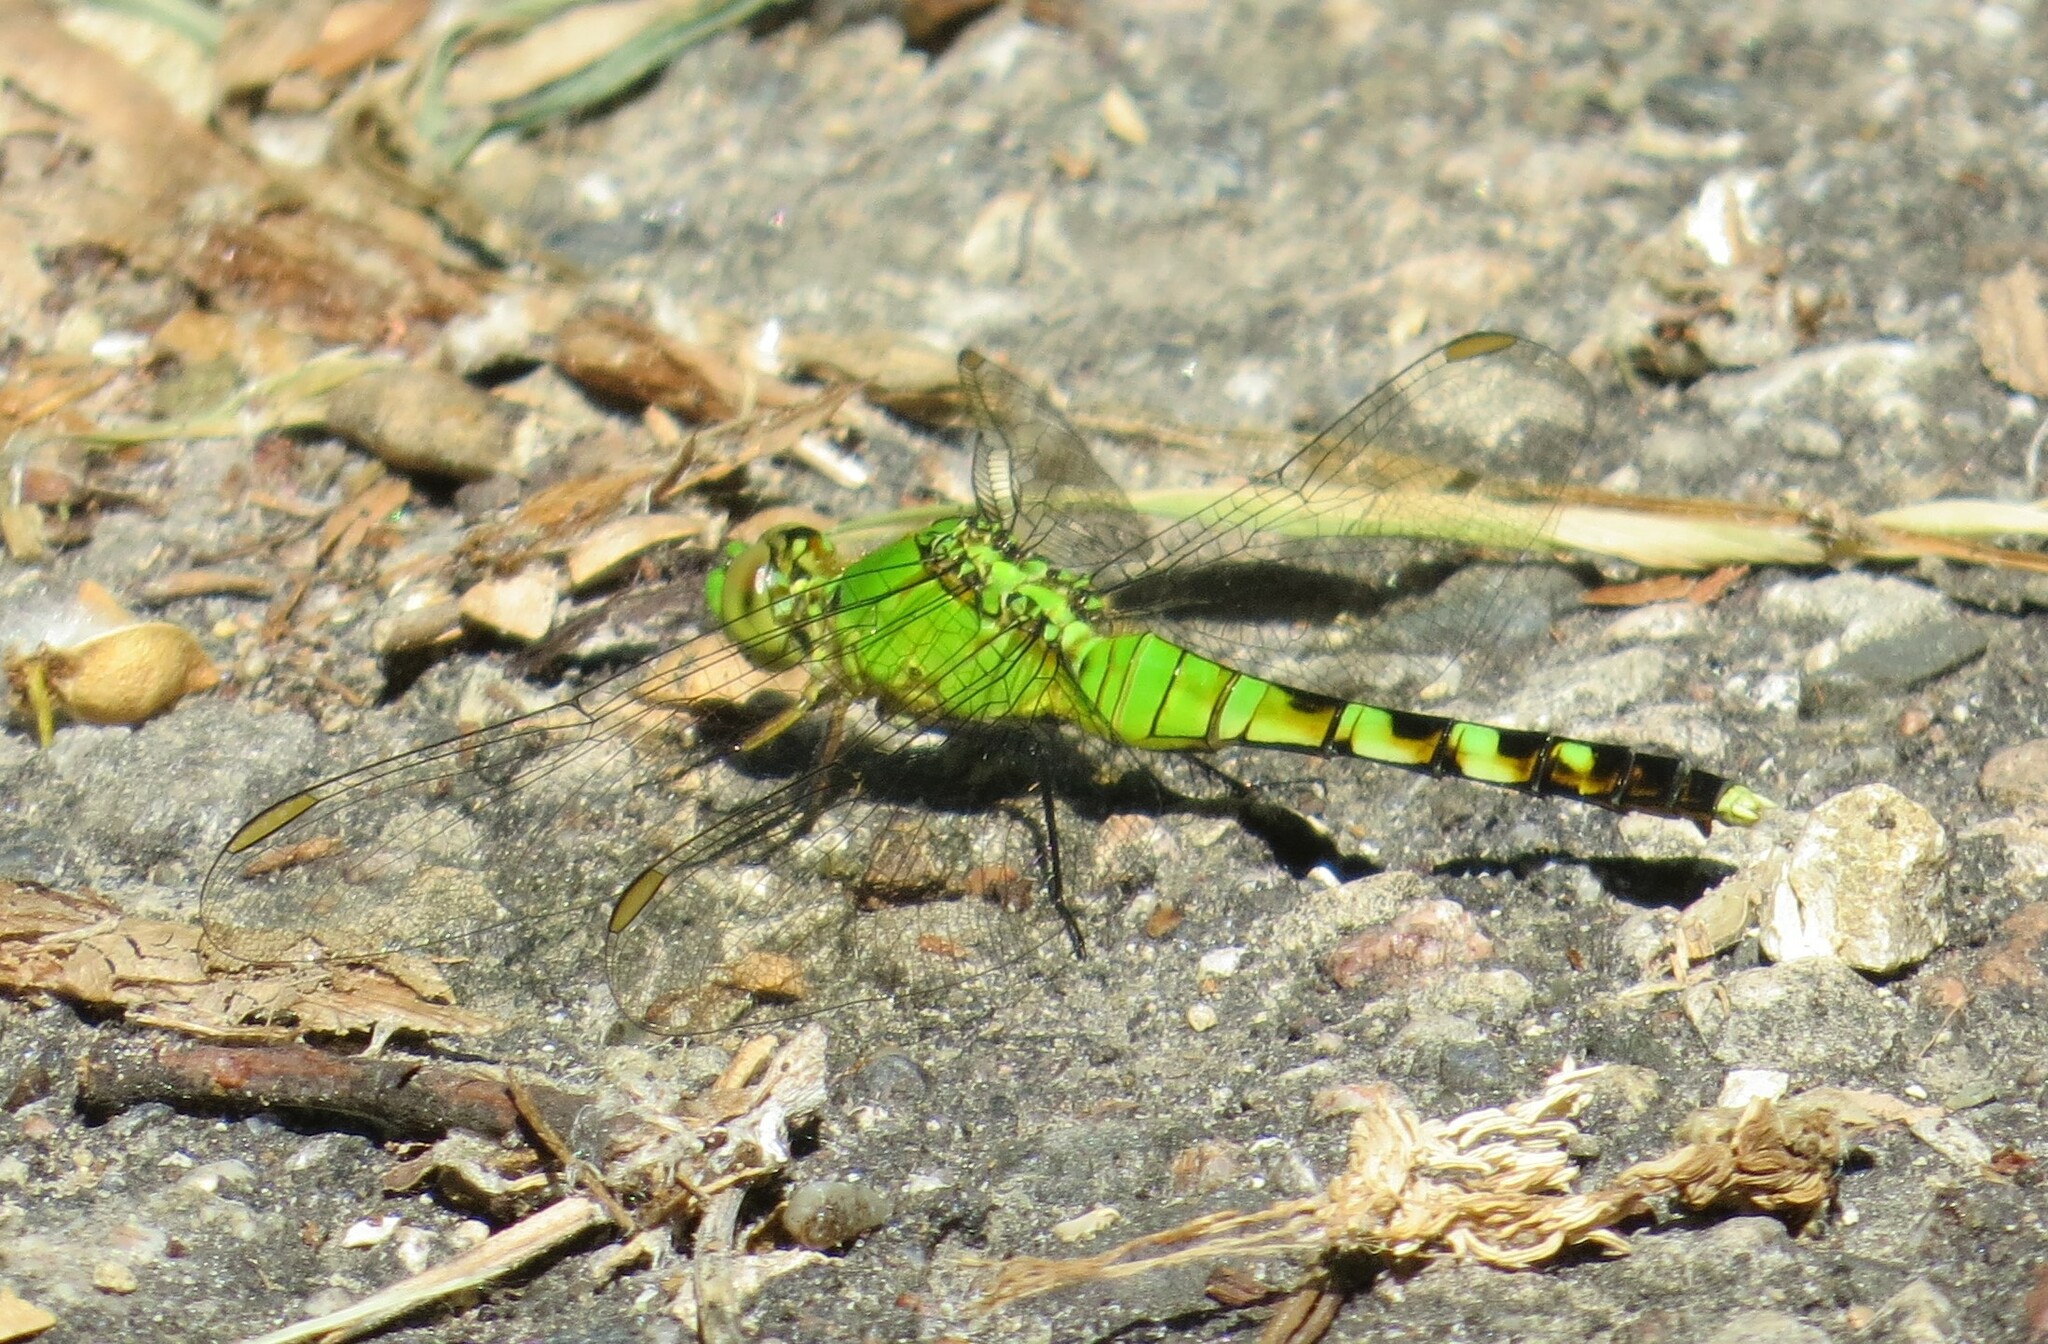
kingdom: Animalia
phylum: Arthropoda
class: Insecta
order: Odonata
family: Libellulidae
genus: Erythemis
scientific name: Erythemis simplicicollis
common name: Eastern pondhawk
